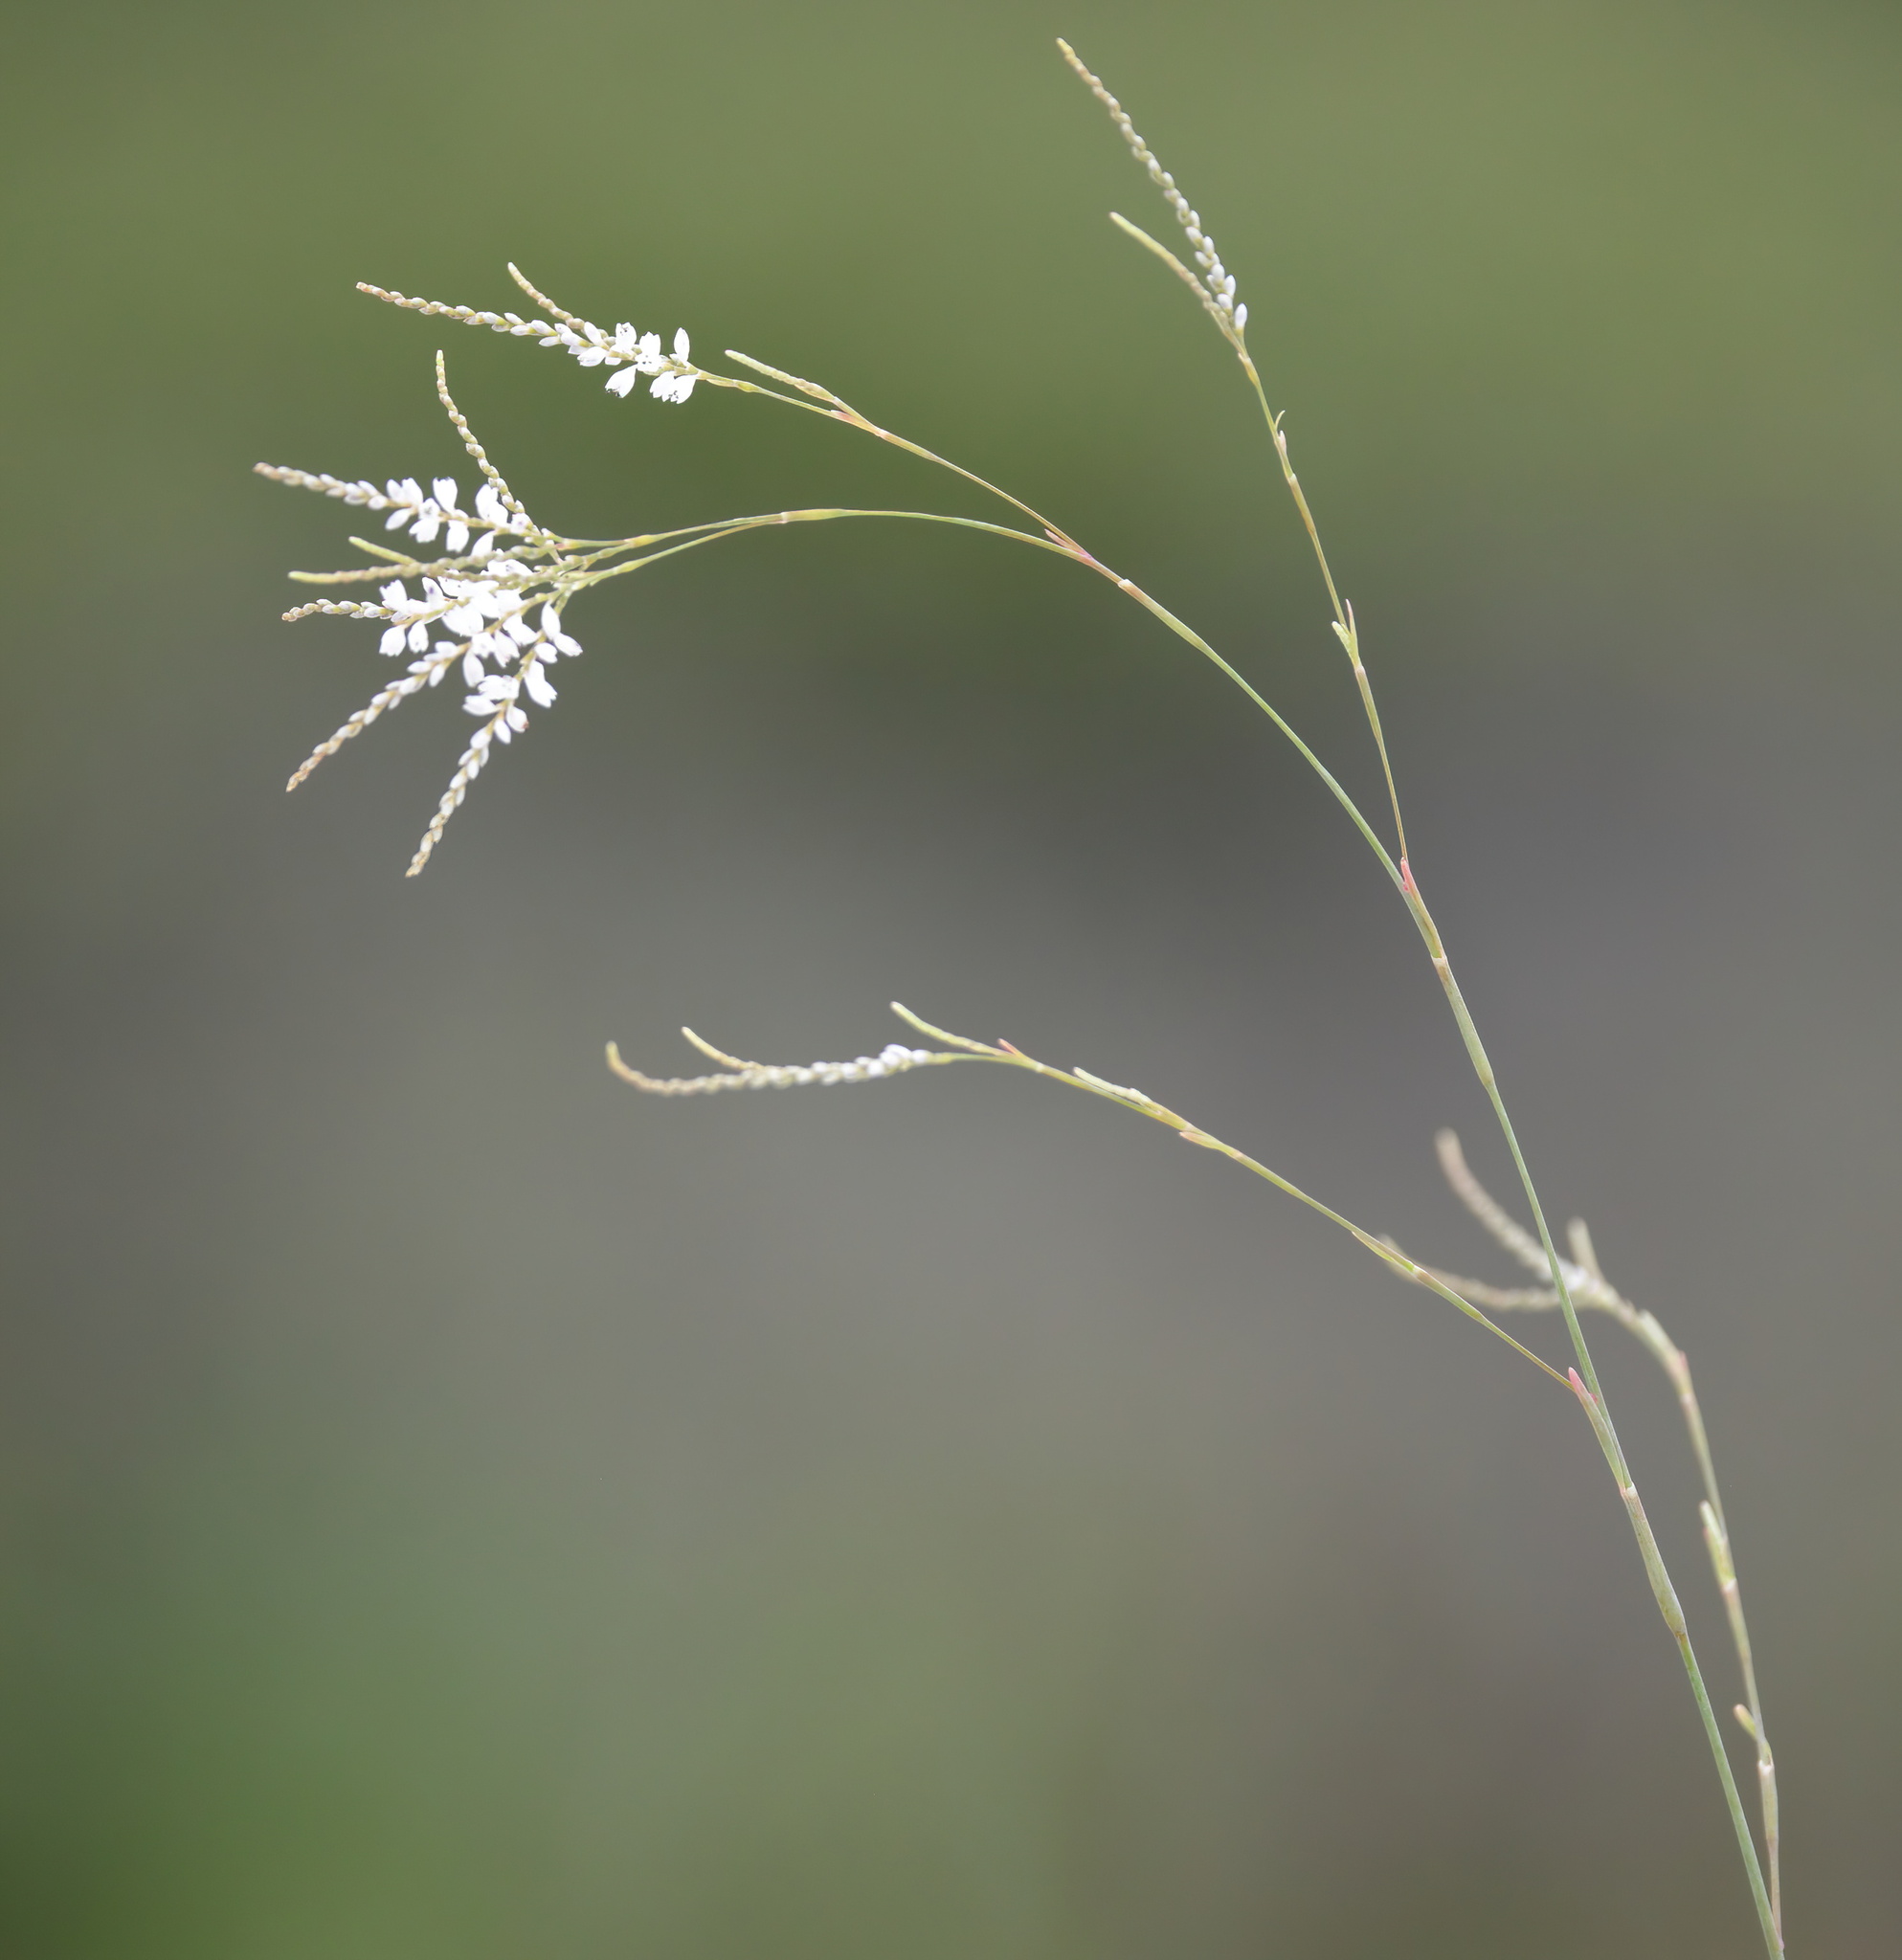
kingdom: Plantae
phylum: Tracheophyta
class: Magnoliopsida
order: Caryophyllales
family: Polygonaceae
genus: Polygonella
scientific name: Polygonella gracilis
